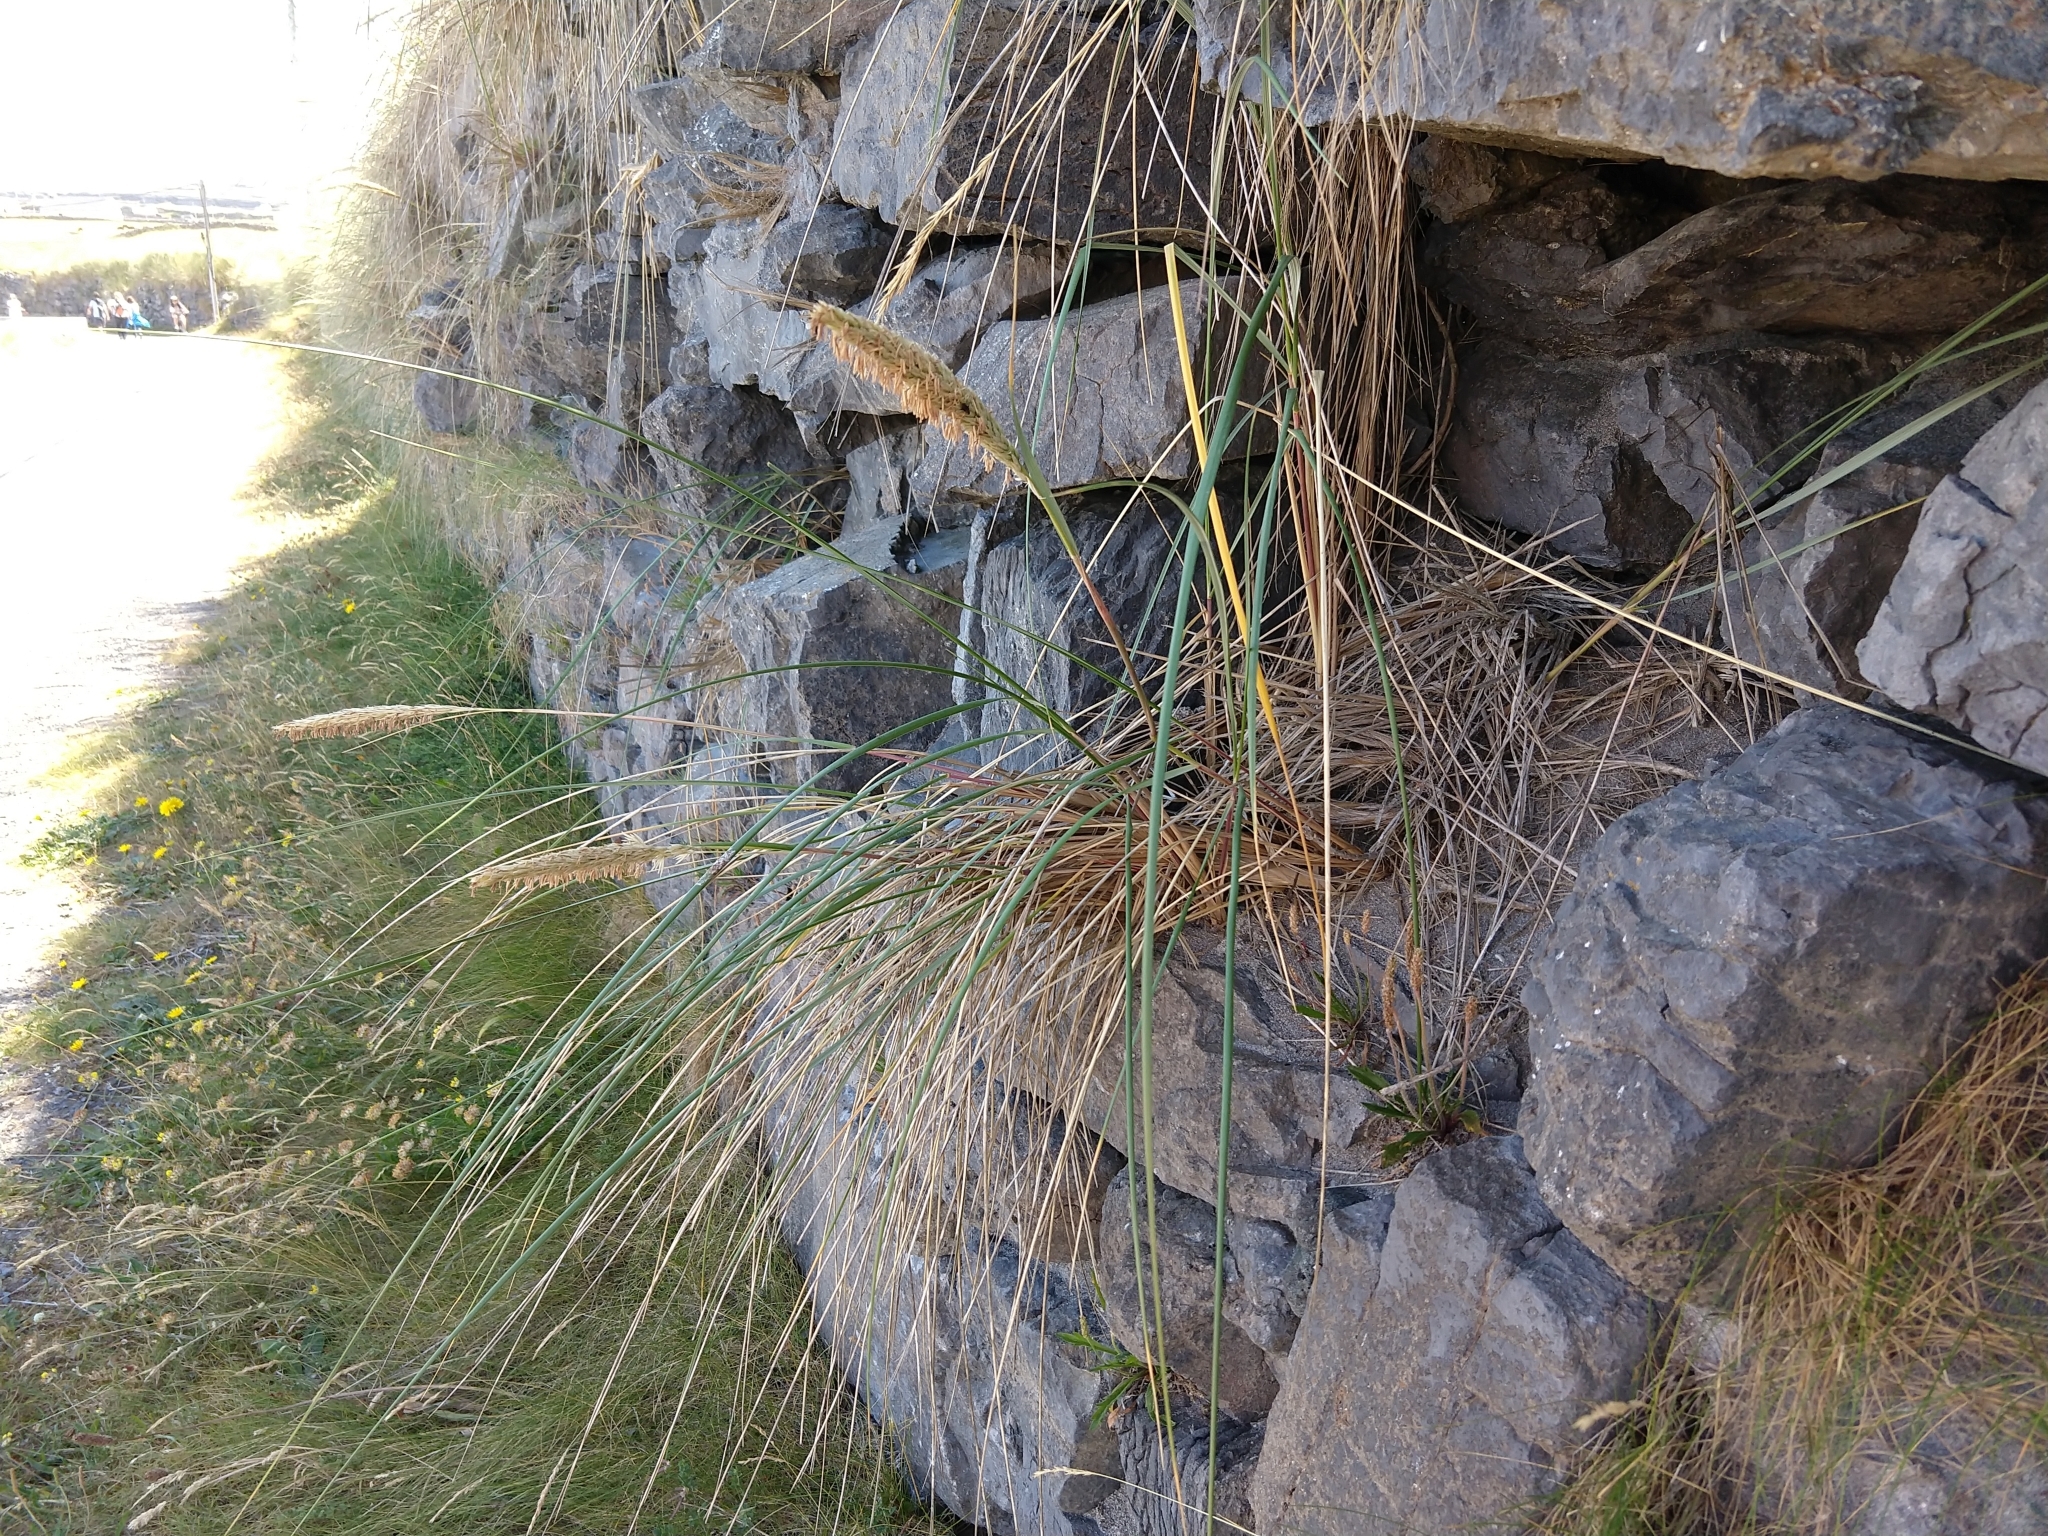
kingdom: Plantae
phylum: Tracheophyta
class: Liliopsida
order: Poales
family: Poaceae
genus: Calamagrostis
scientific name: Calamagrostis arenaria
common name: European beachgrass
